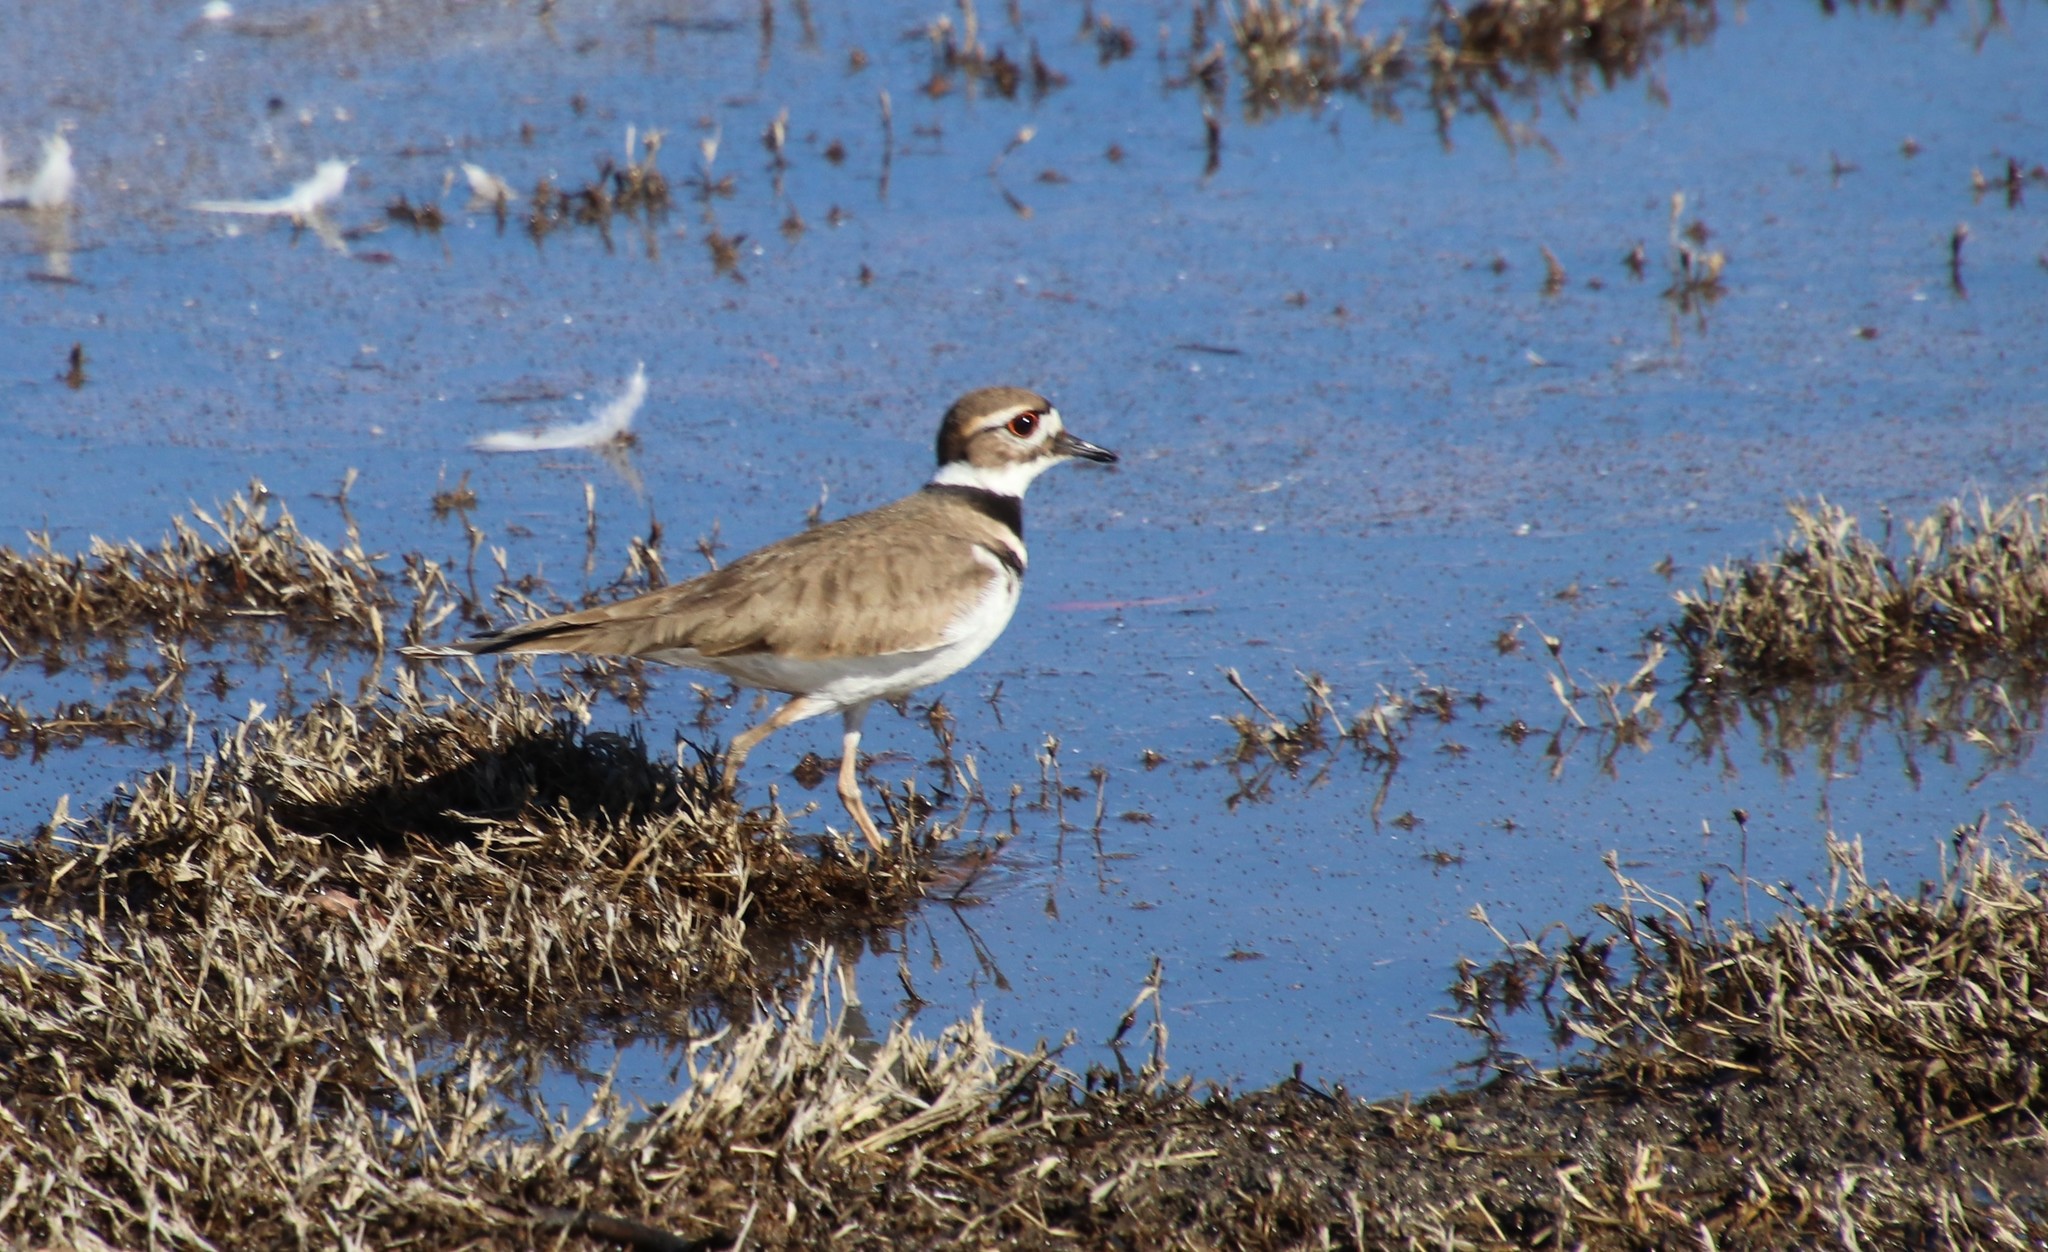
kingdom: Animalia
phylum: Chordata
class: Aves
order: Charadriiformes
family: Charadriidae
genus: Charadrius
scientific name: Charadrius vociferus
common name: Killdeer
